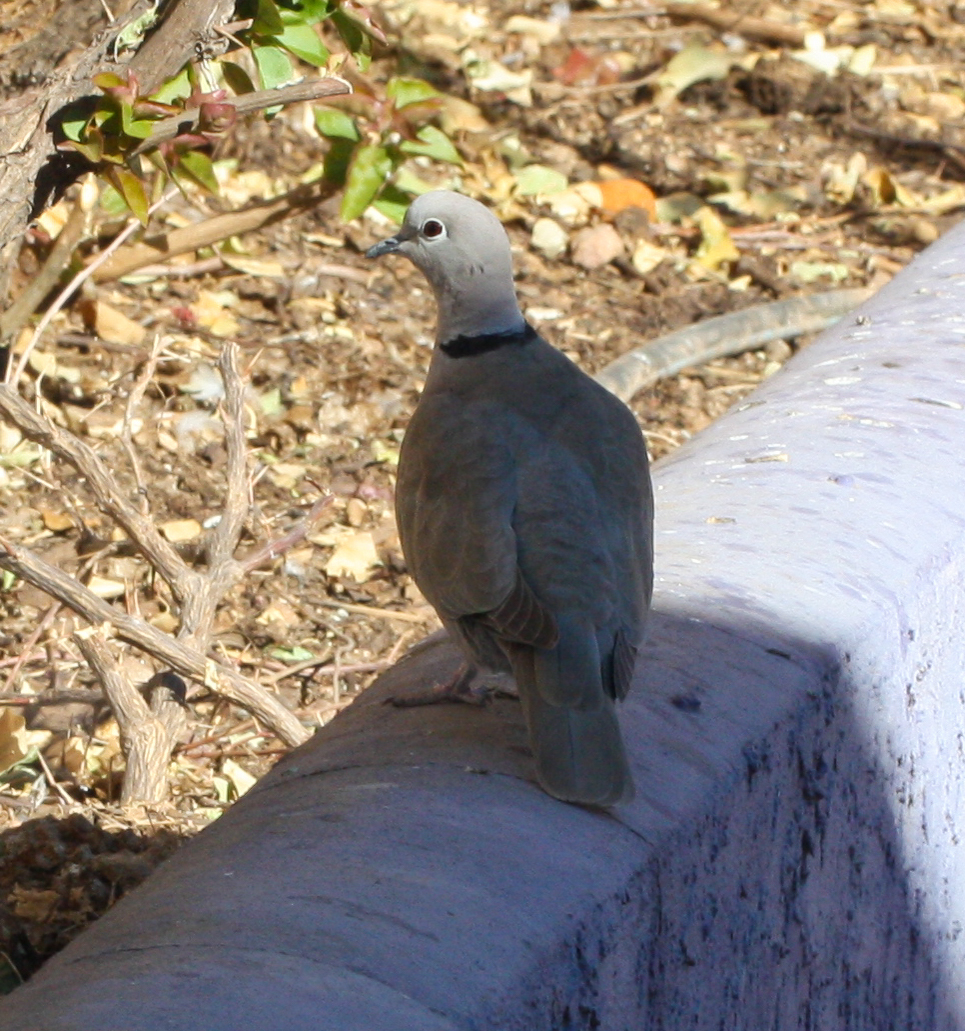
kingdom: Animalia
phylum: Chordata
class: Aves
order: Columbiformes
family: Columbidae
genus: Streptopelia
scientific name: Streptopelia decaocto
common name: Eurasian collared dove
